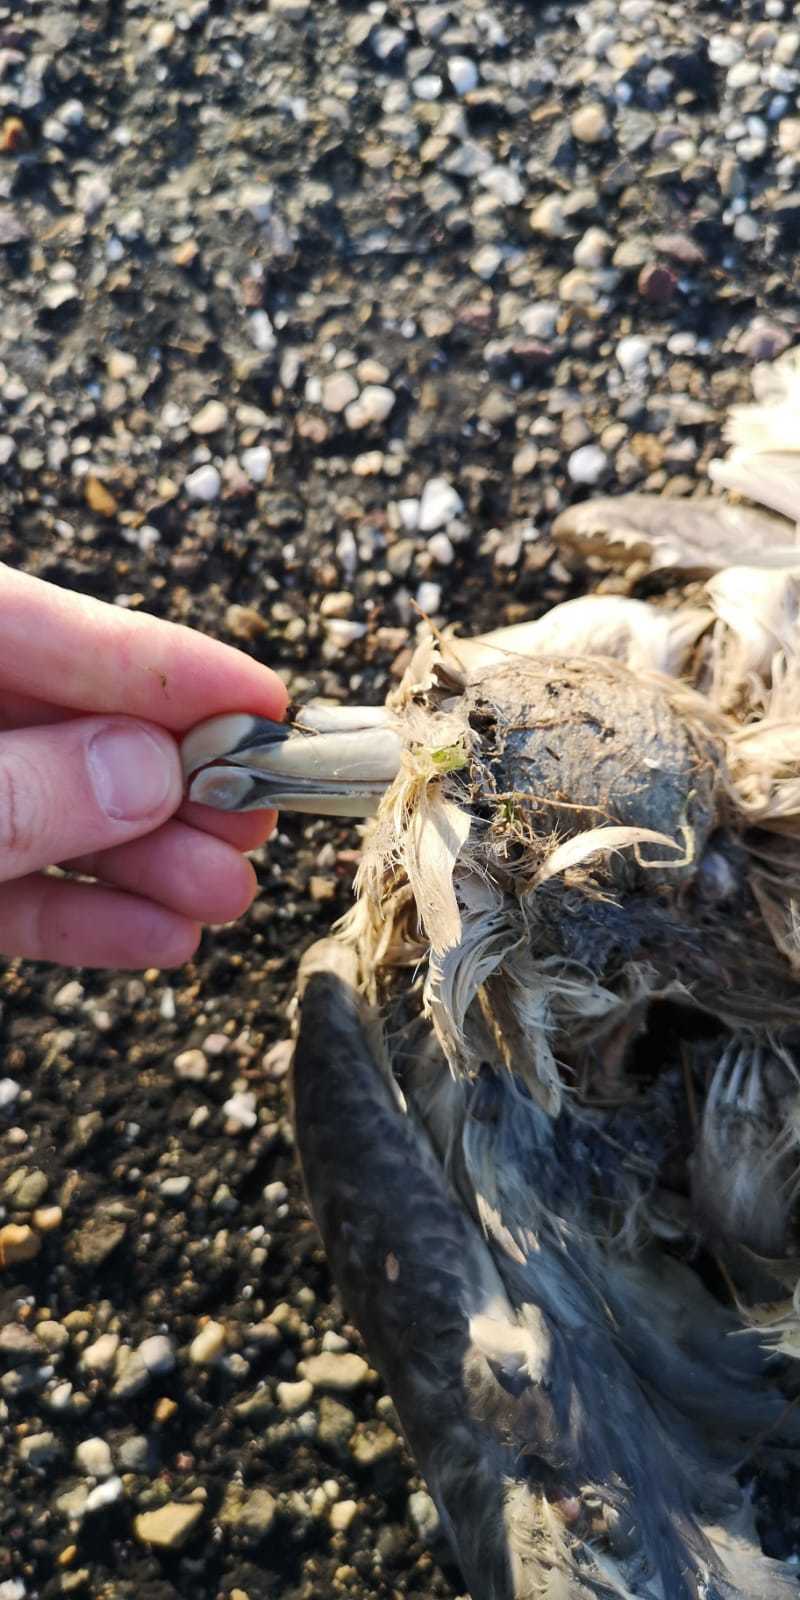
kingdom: Animalia
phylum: Chordata
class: Aves
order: Procellariiformes
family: Procellariidae
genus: Fulmarus
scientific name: Fulmarus glacialis
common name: Northern fulmar
